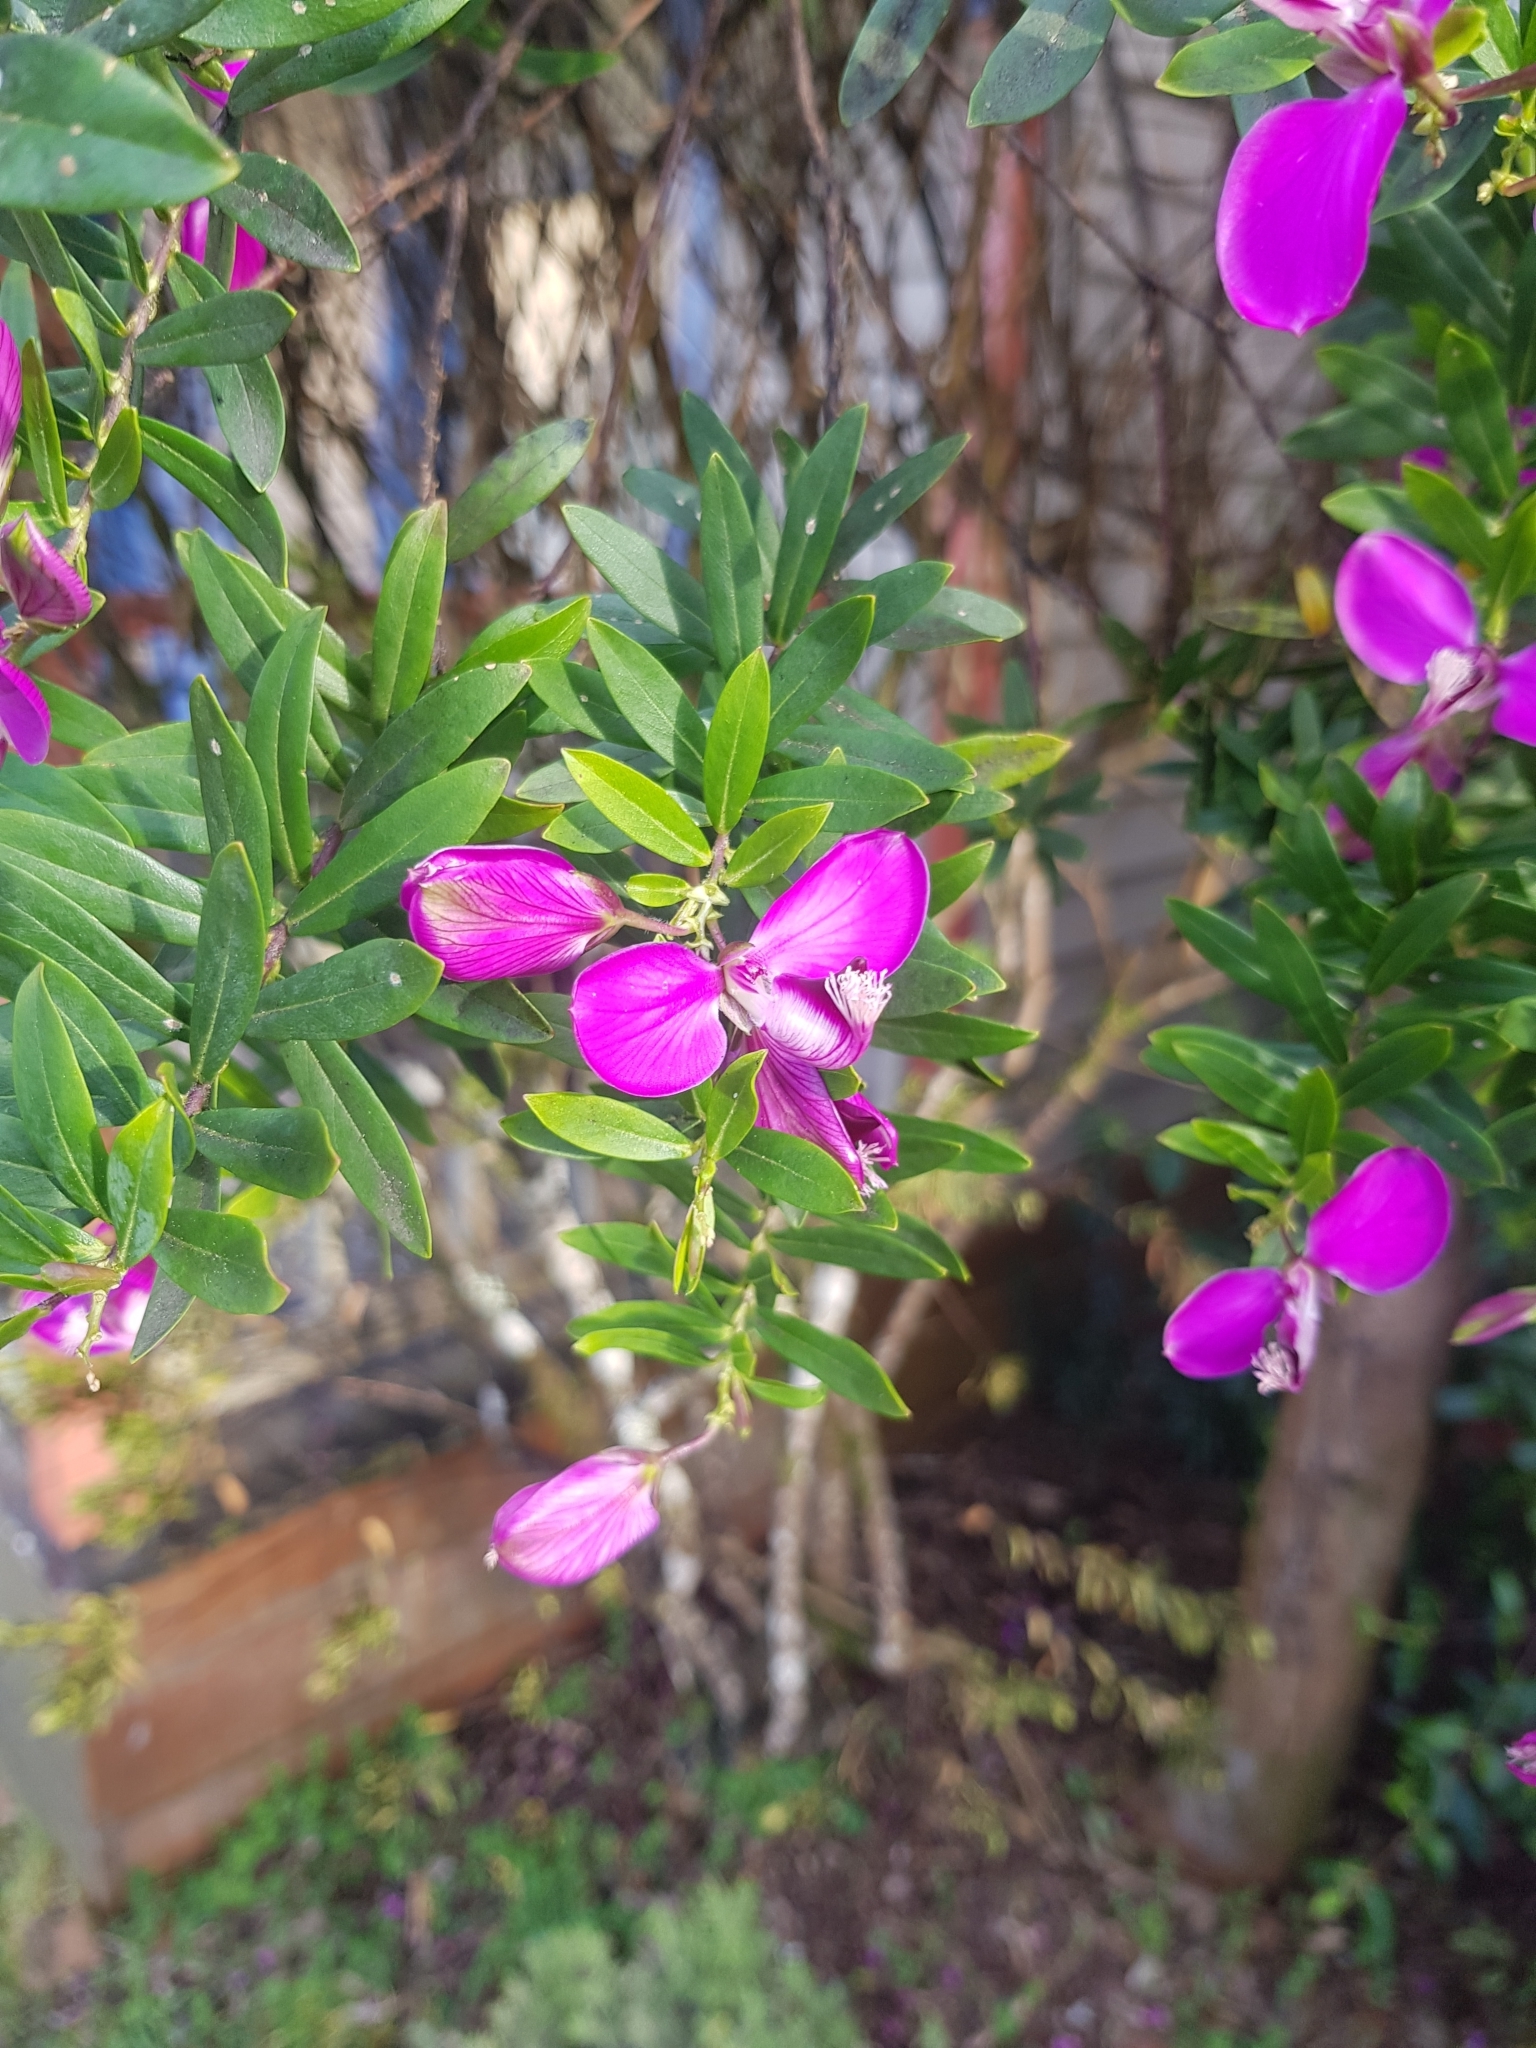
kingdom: Plantae
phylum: Tracheophyta
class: Magnoliopsida
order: Fabales
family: Polygalaceae
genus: Polygala
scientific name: Polygala myrtifolia
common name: Myrtle-leaf milkwort
